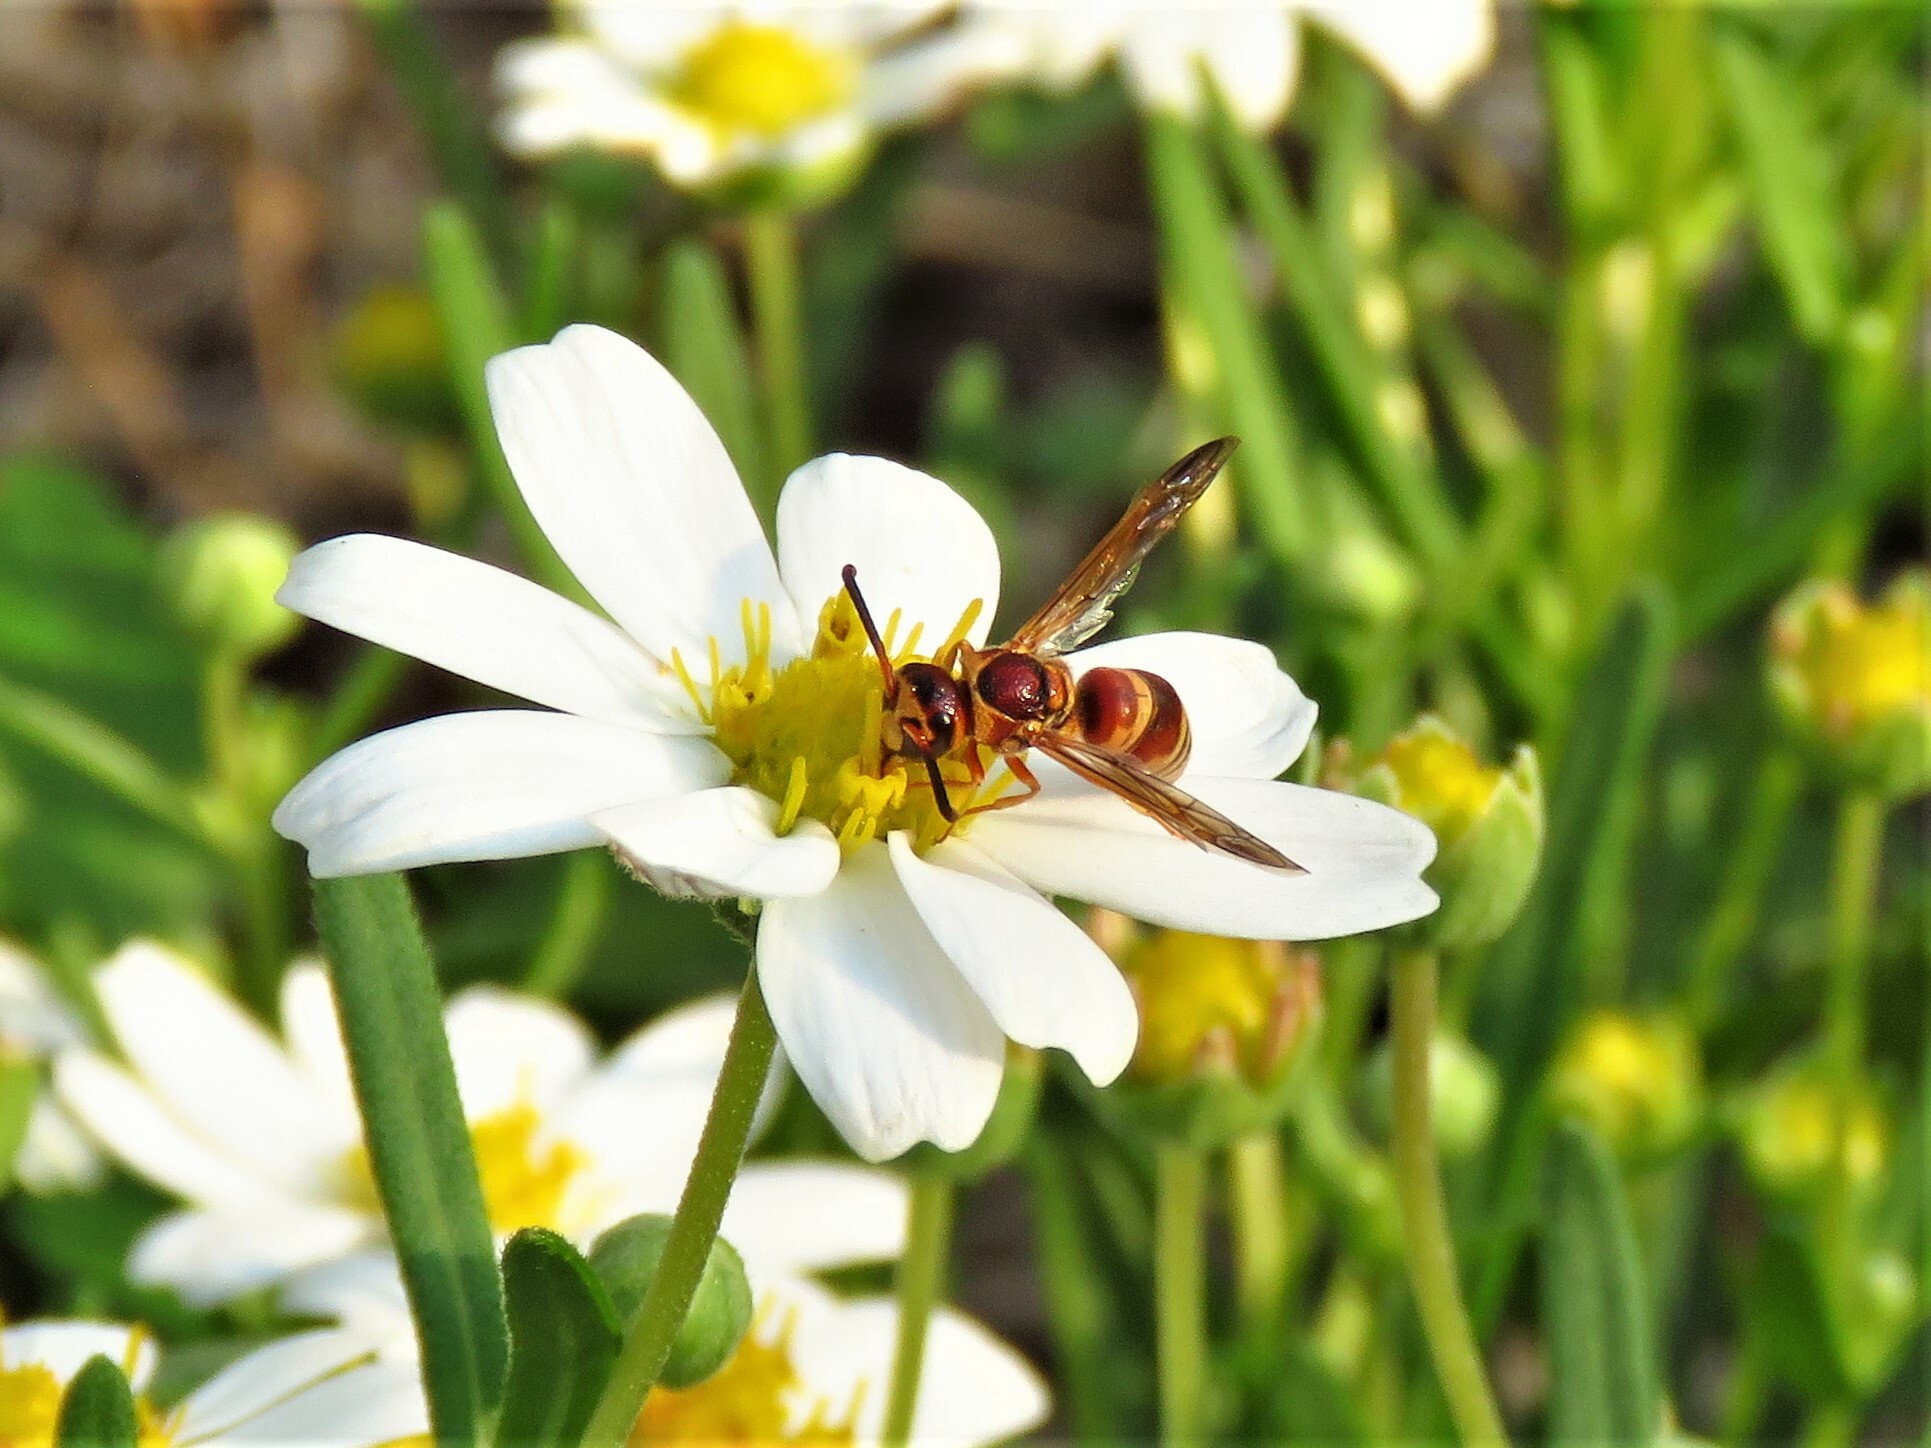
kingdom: Animalia
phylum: Arthropoda
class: Insecta
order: Hymenoptera
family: Eumenidae
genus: Euodynerus
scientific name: Euodynerus pratensis
